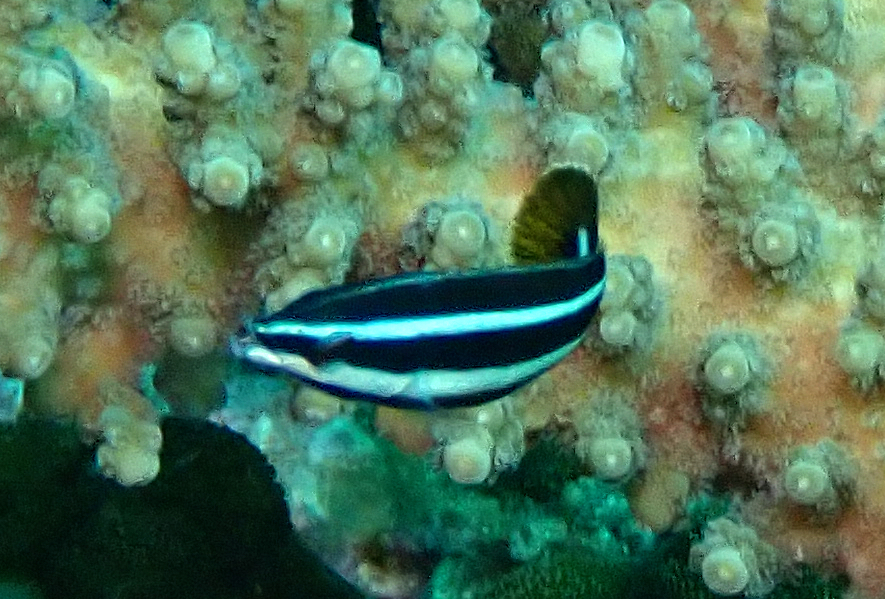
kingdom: Animalia
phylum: Chordata
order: Perciformes
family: Labridae
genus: Labropsis
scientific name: Labropsis manabei
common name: Northern tubelip
